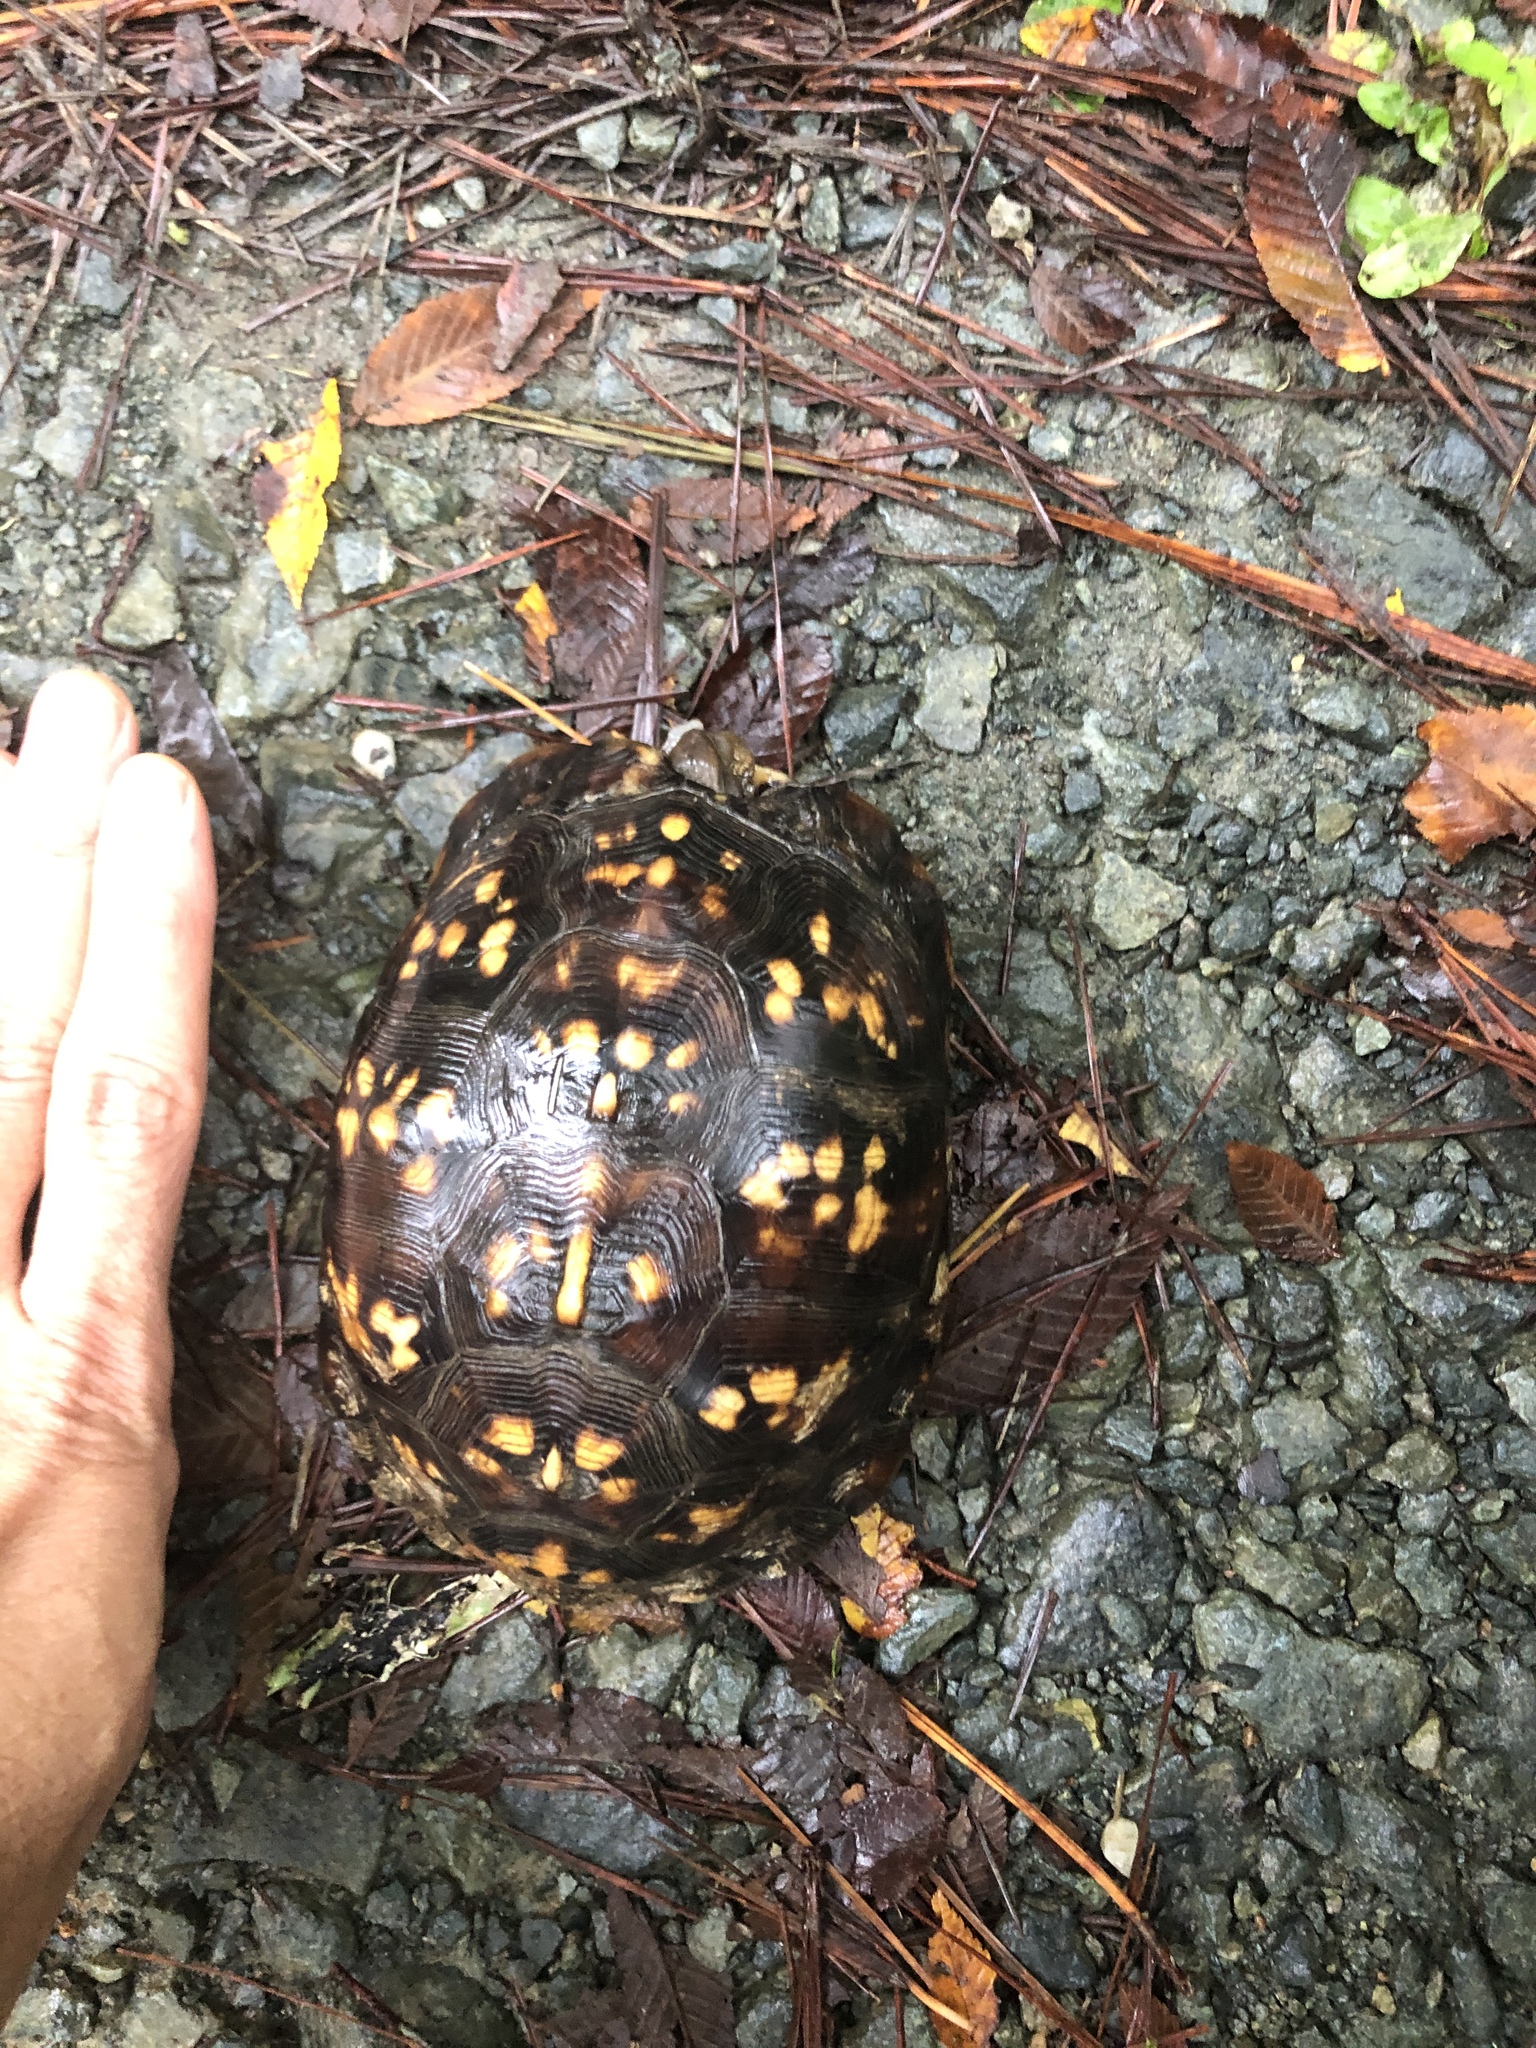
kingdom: Animalia
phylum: Chordata
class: Testudines
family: Emydidae
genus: Terrapene
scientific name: Terrapene carolina
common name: Common box turtle
